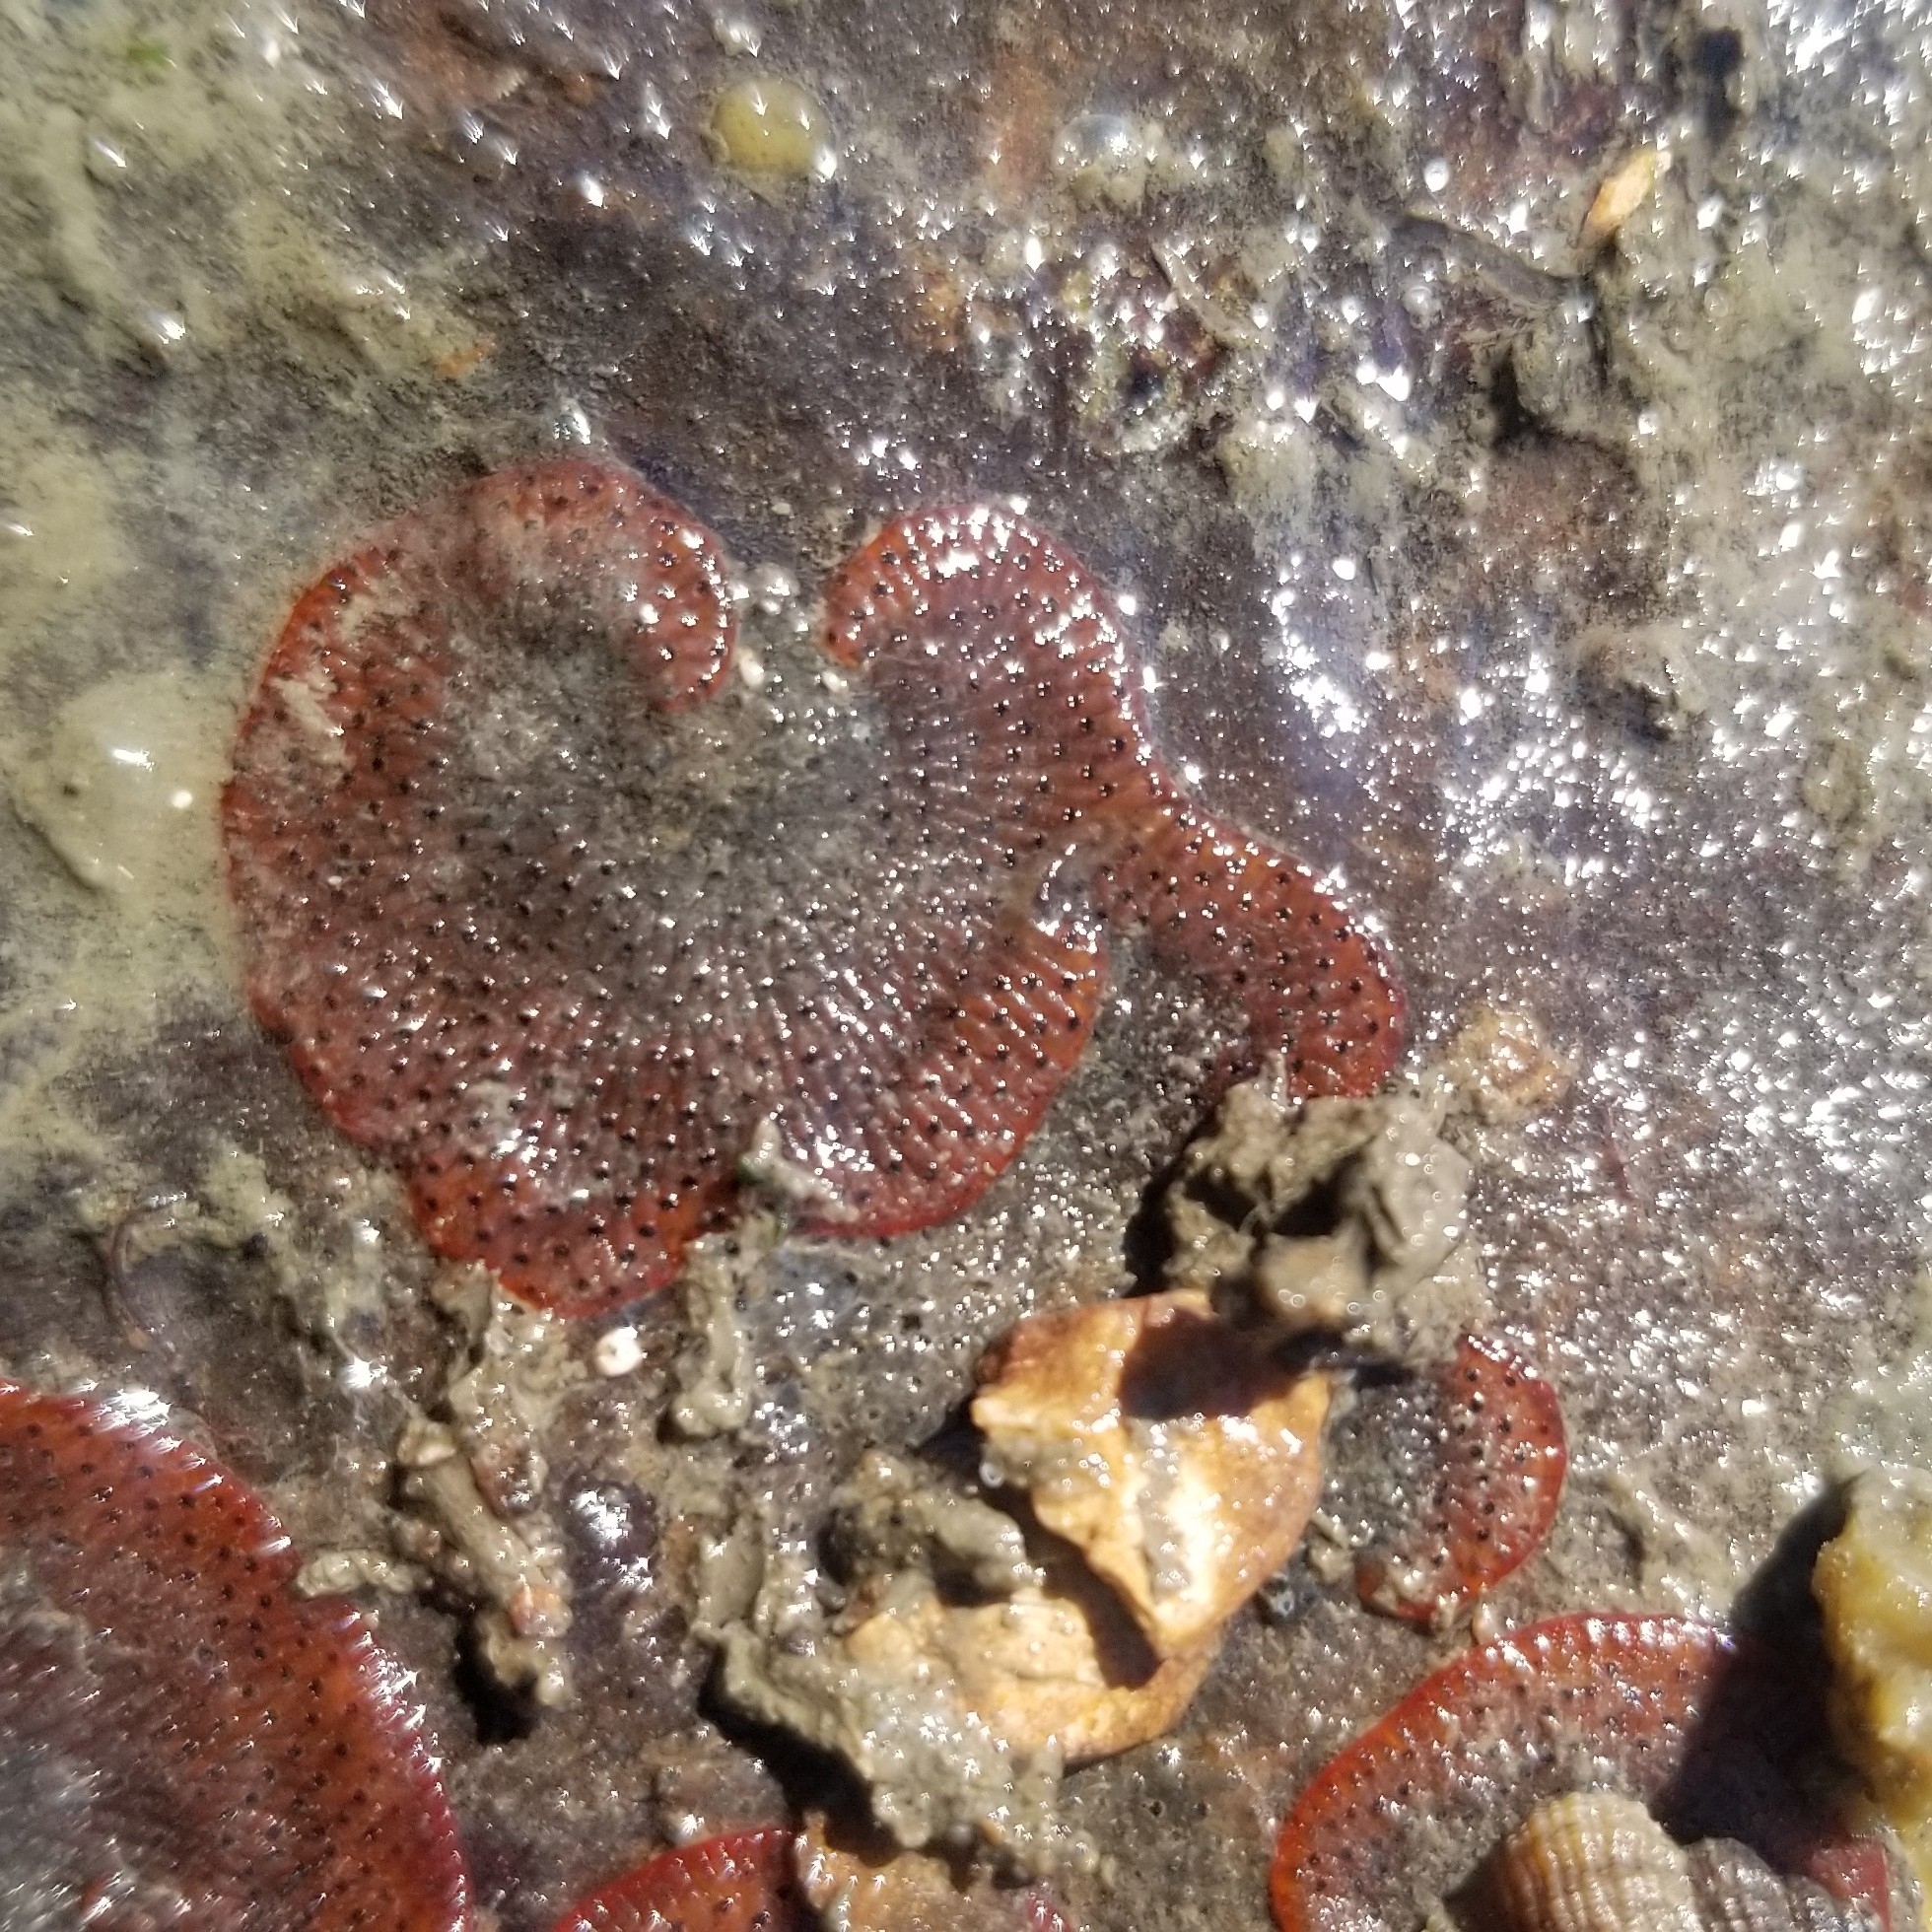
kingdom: Animalia
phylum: Bryozoa
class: Gymnolaemata
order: Cheilostomatida
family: Watersiporidae
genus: Watersipora
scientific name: Watersipora subtorquata
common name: Bryozoan
